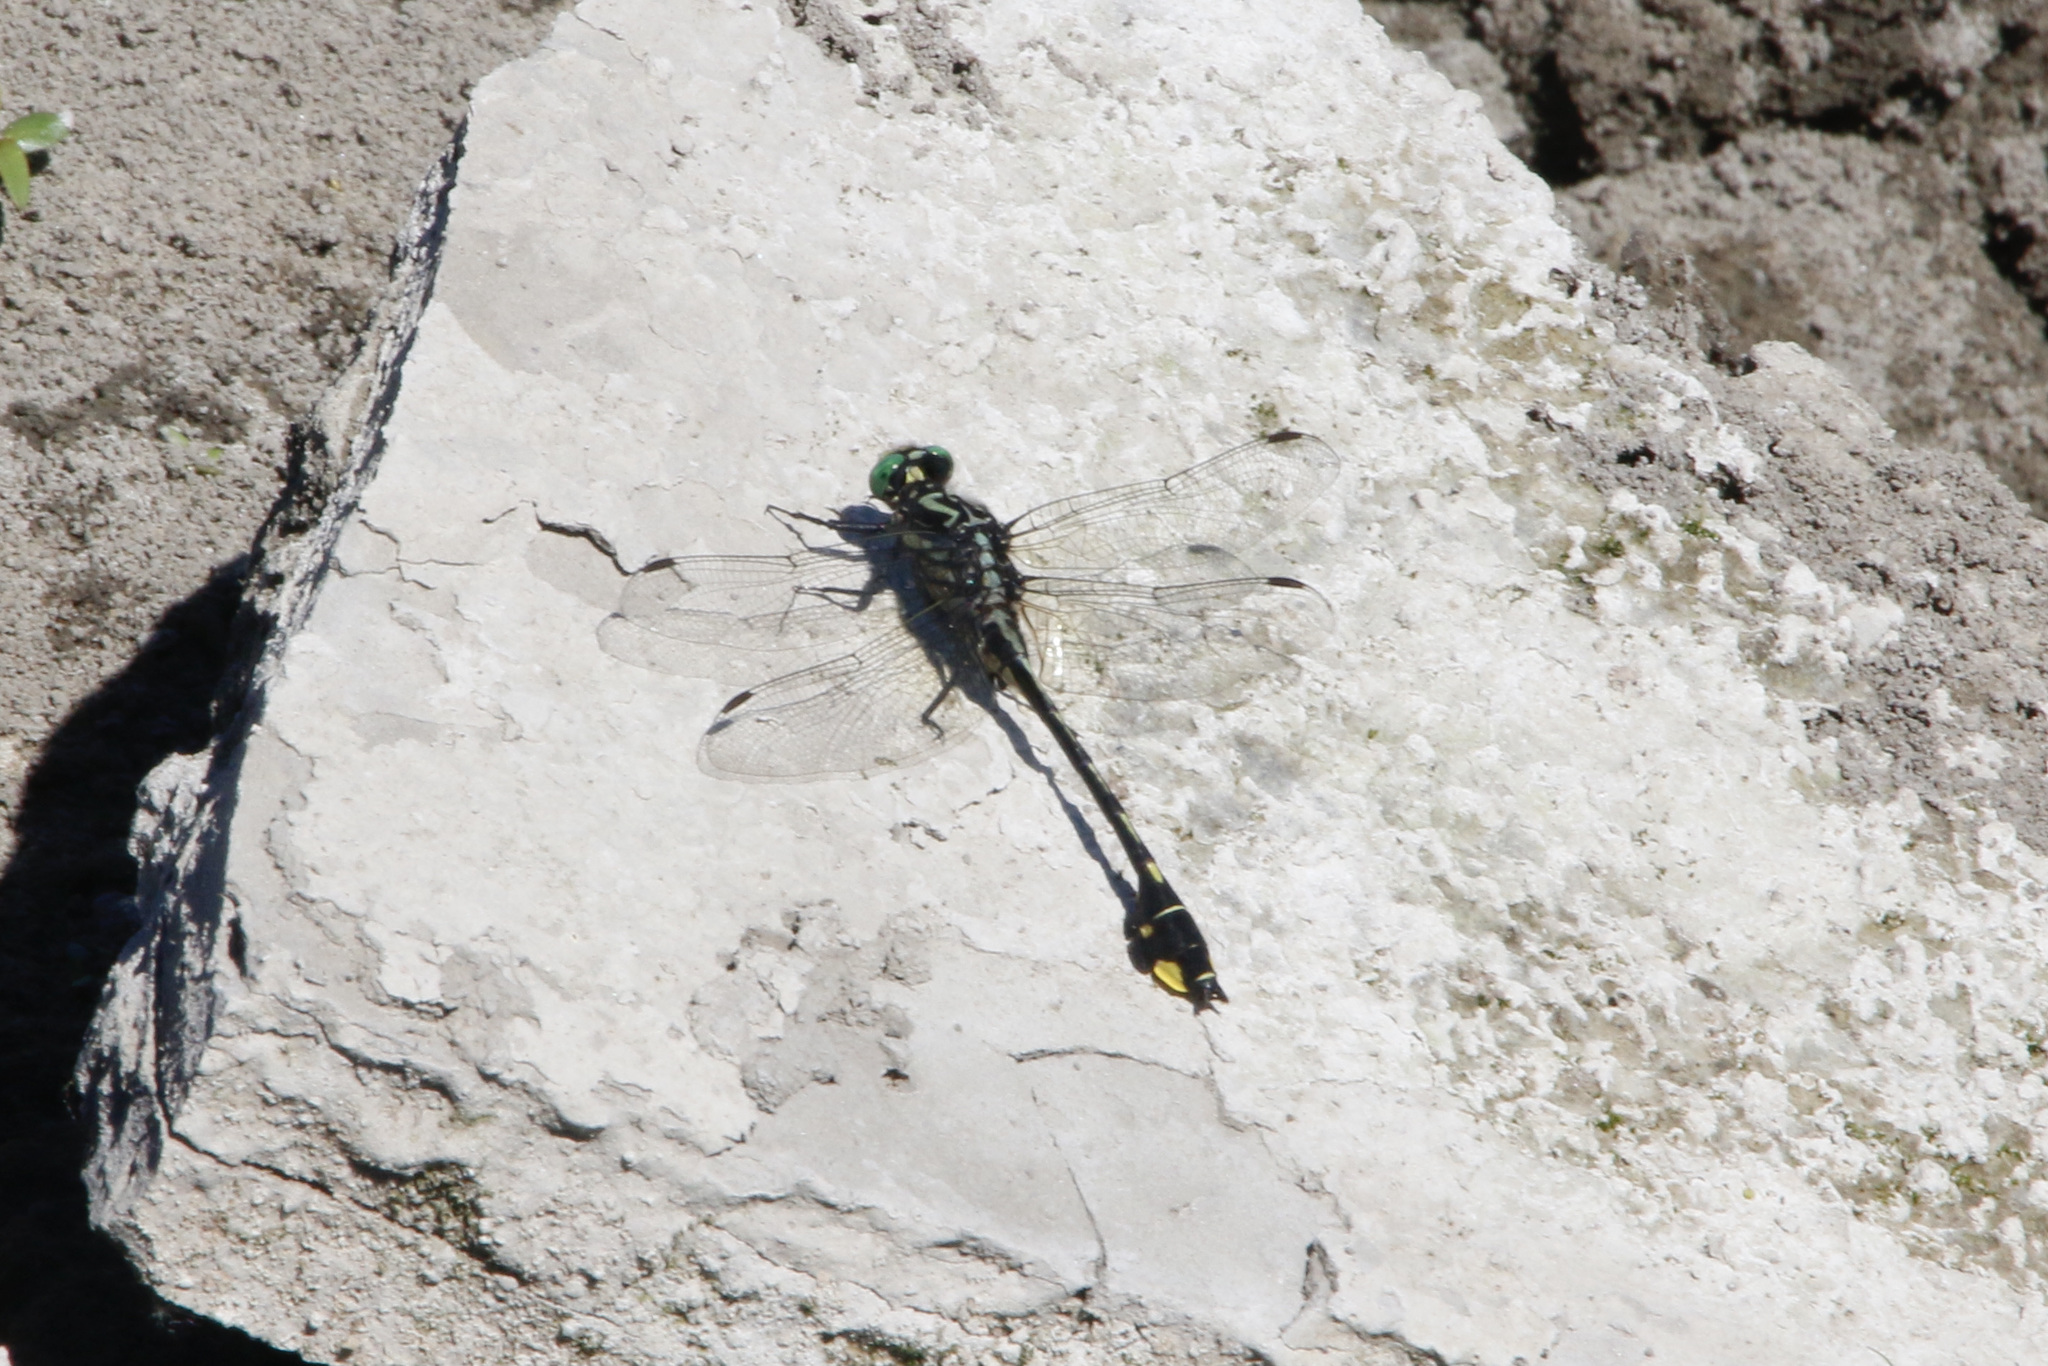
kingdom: Animalia
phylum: Arthropoda
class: Insecta
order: Odonata
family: Gomphidae
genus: Gomphurus
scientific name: Gomphurus vastus
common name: Cobra clubtail
